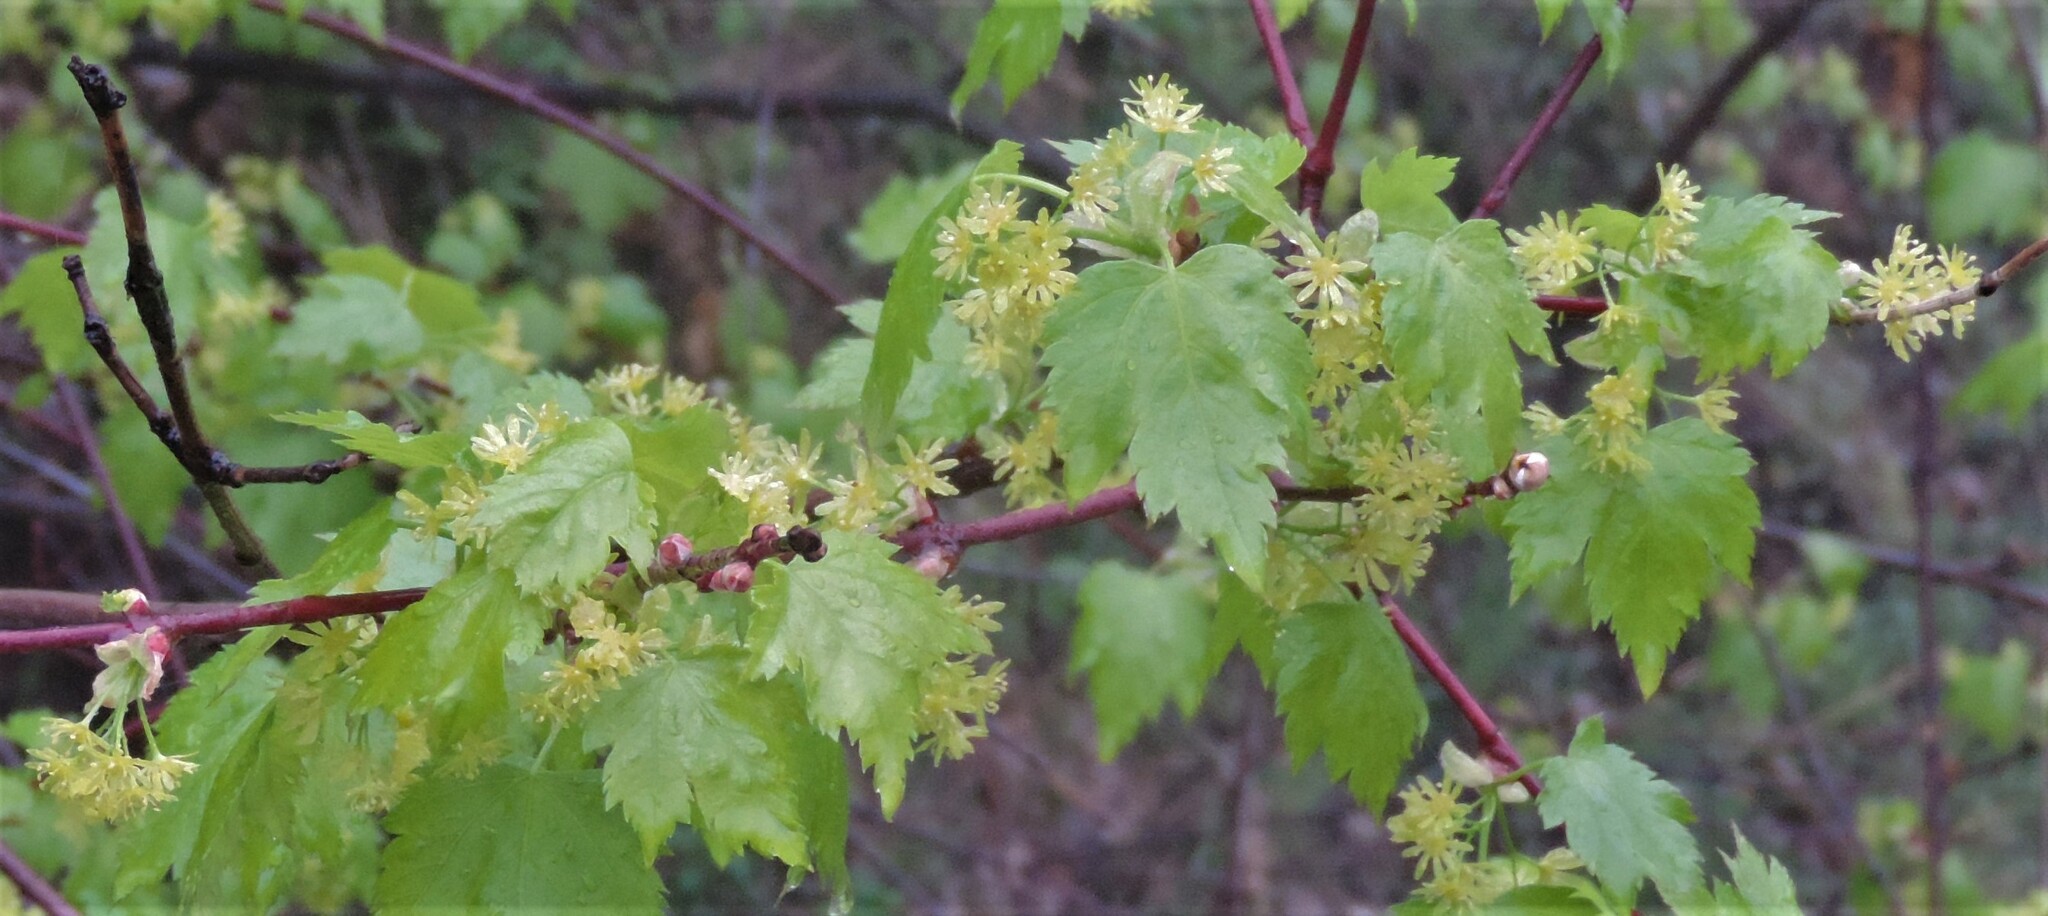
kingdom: Plantae
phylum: Tracheophyta
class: Magnoliopsida
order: Sapindales
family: Sapindaceae
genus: Acer
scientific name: Acer glabrum
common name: Rocky mountain maple
